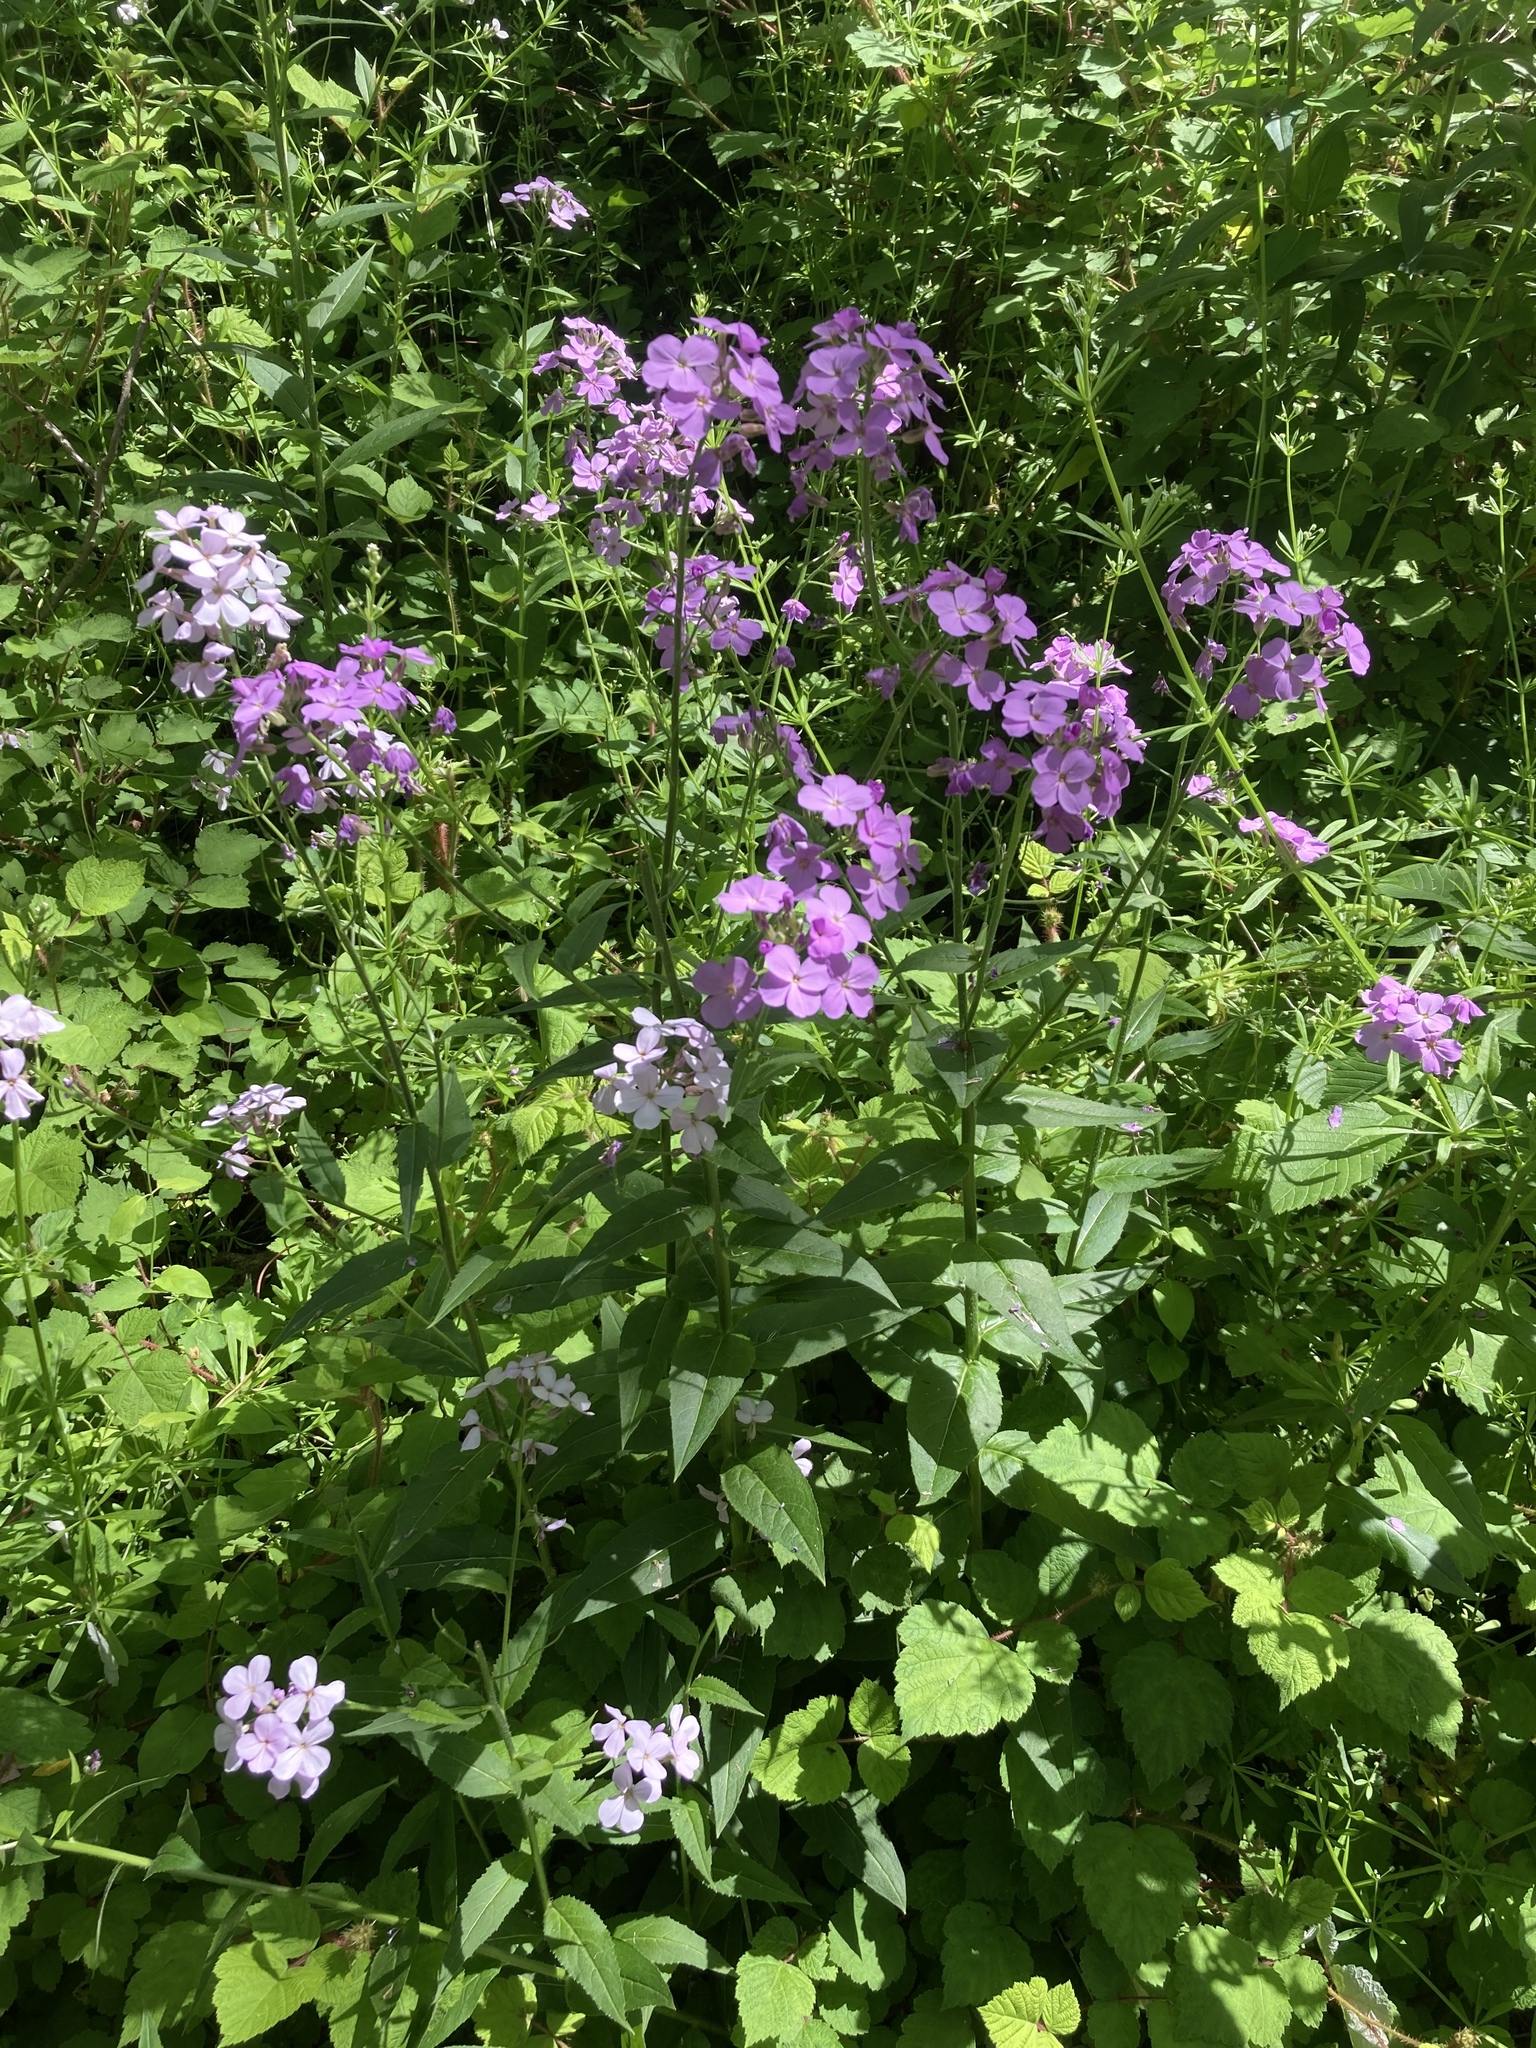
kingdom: Plantae
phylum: Tracheophyta
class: Magnoliopsida
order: Brassicales
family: Brassicaceae
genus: Hesperis
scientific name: Hesperis matronalis
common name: Dame's-violet
